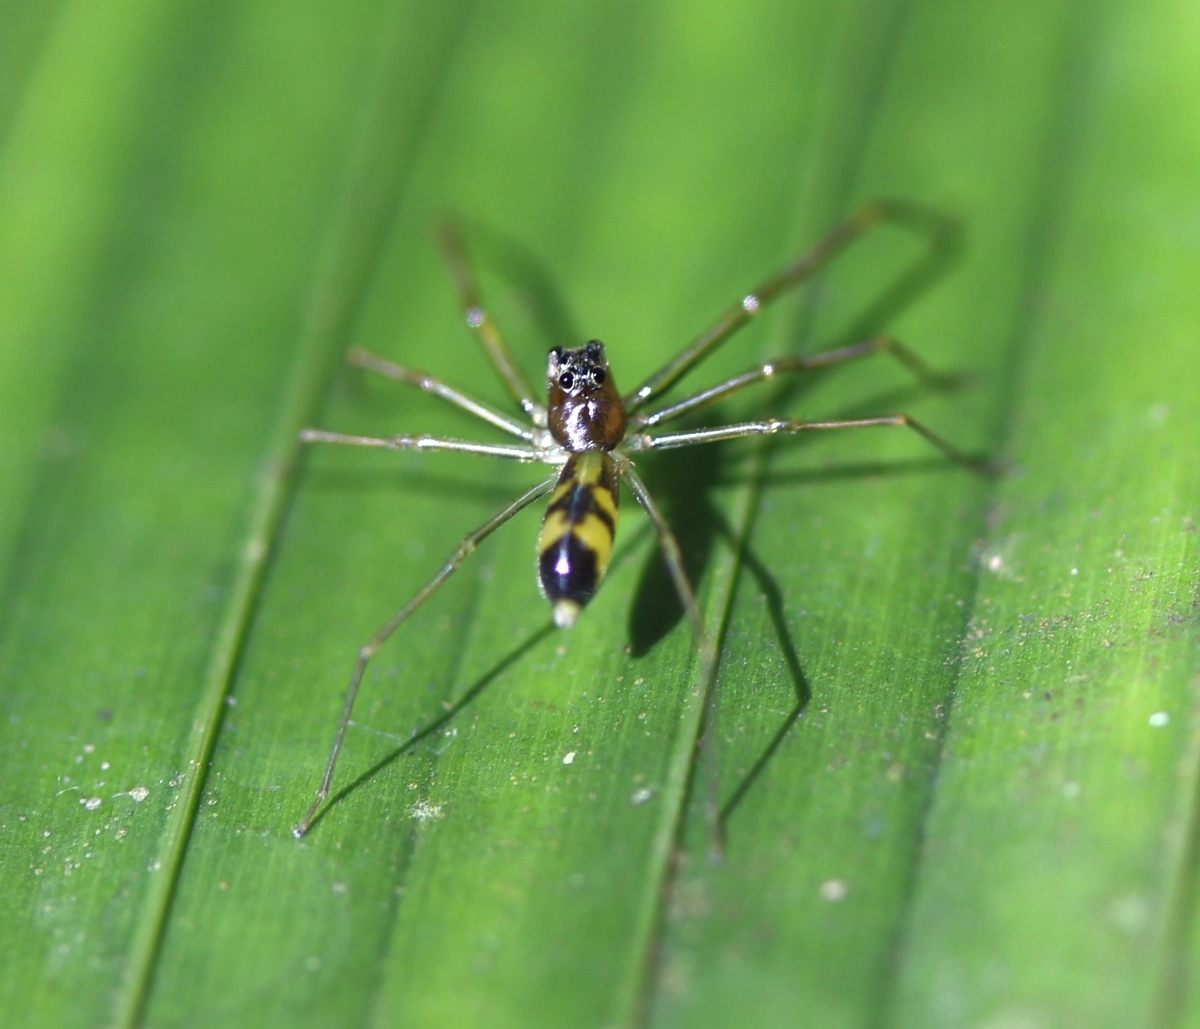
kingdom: Animalia
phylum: Arthropoda
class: Arachnida
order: Araneae
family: Salticidae
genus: Lyssomanes
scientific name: Lyssomanes longipes
